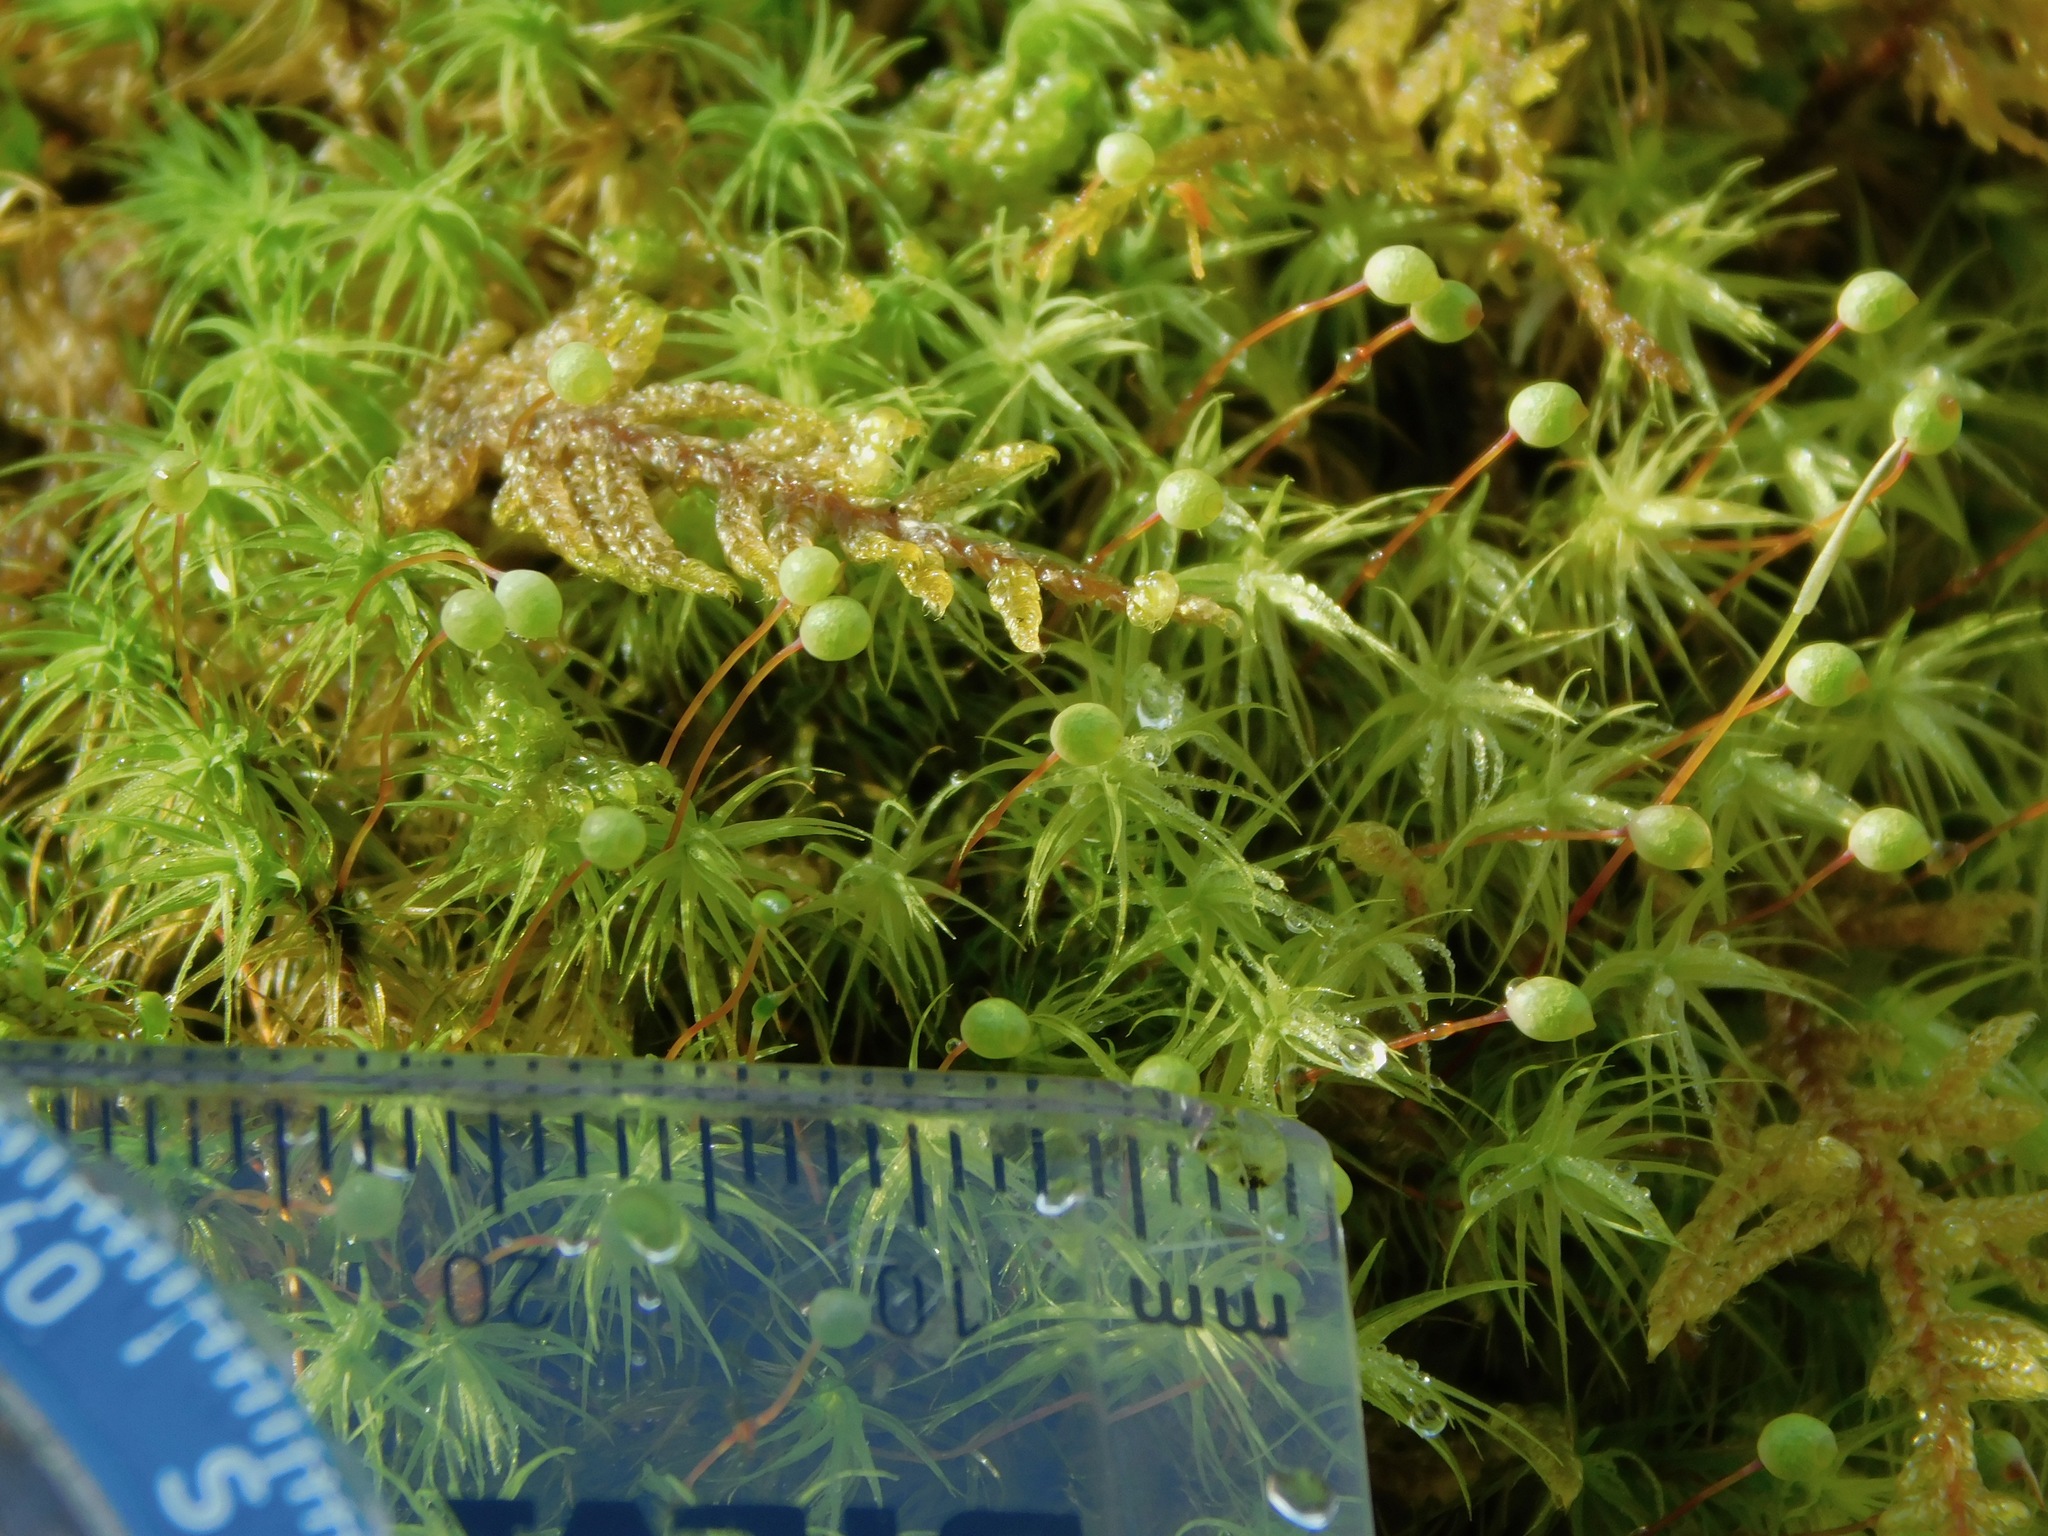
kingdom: Plantae
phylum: Bryophyta
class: Bryopsida
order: Bartramiales
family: Bartramiaceae
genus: Bartramia
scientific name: Bartramia ithyphylla
